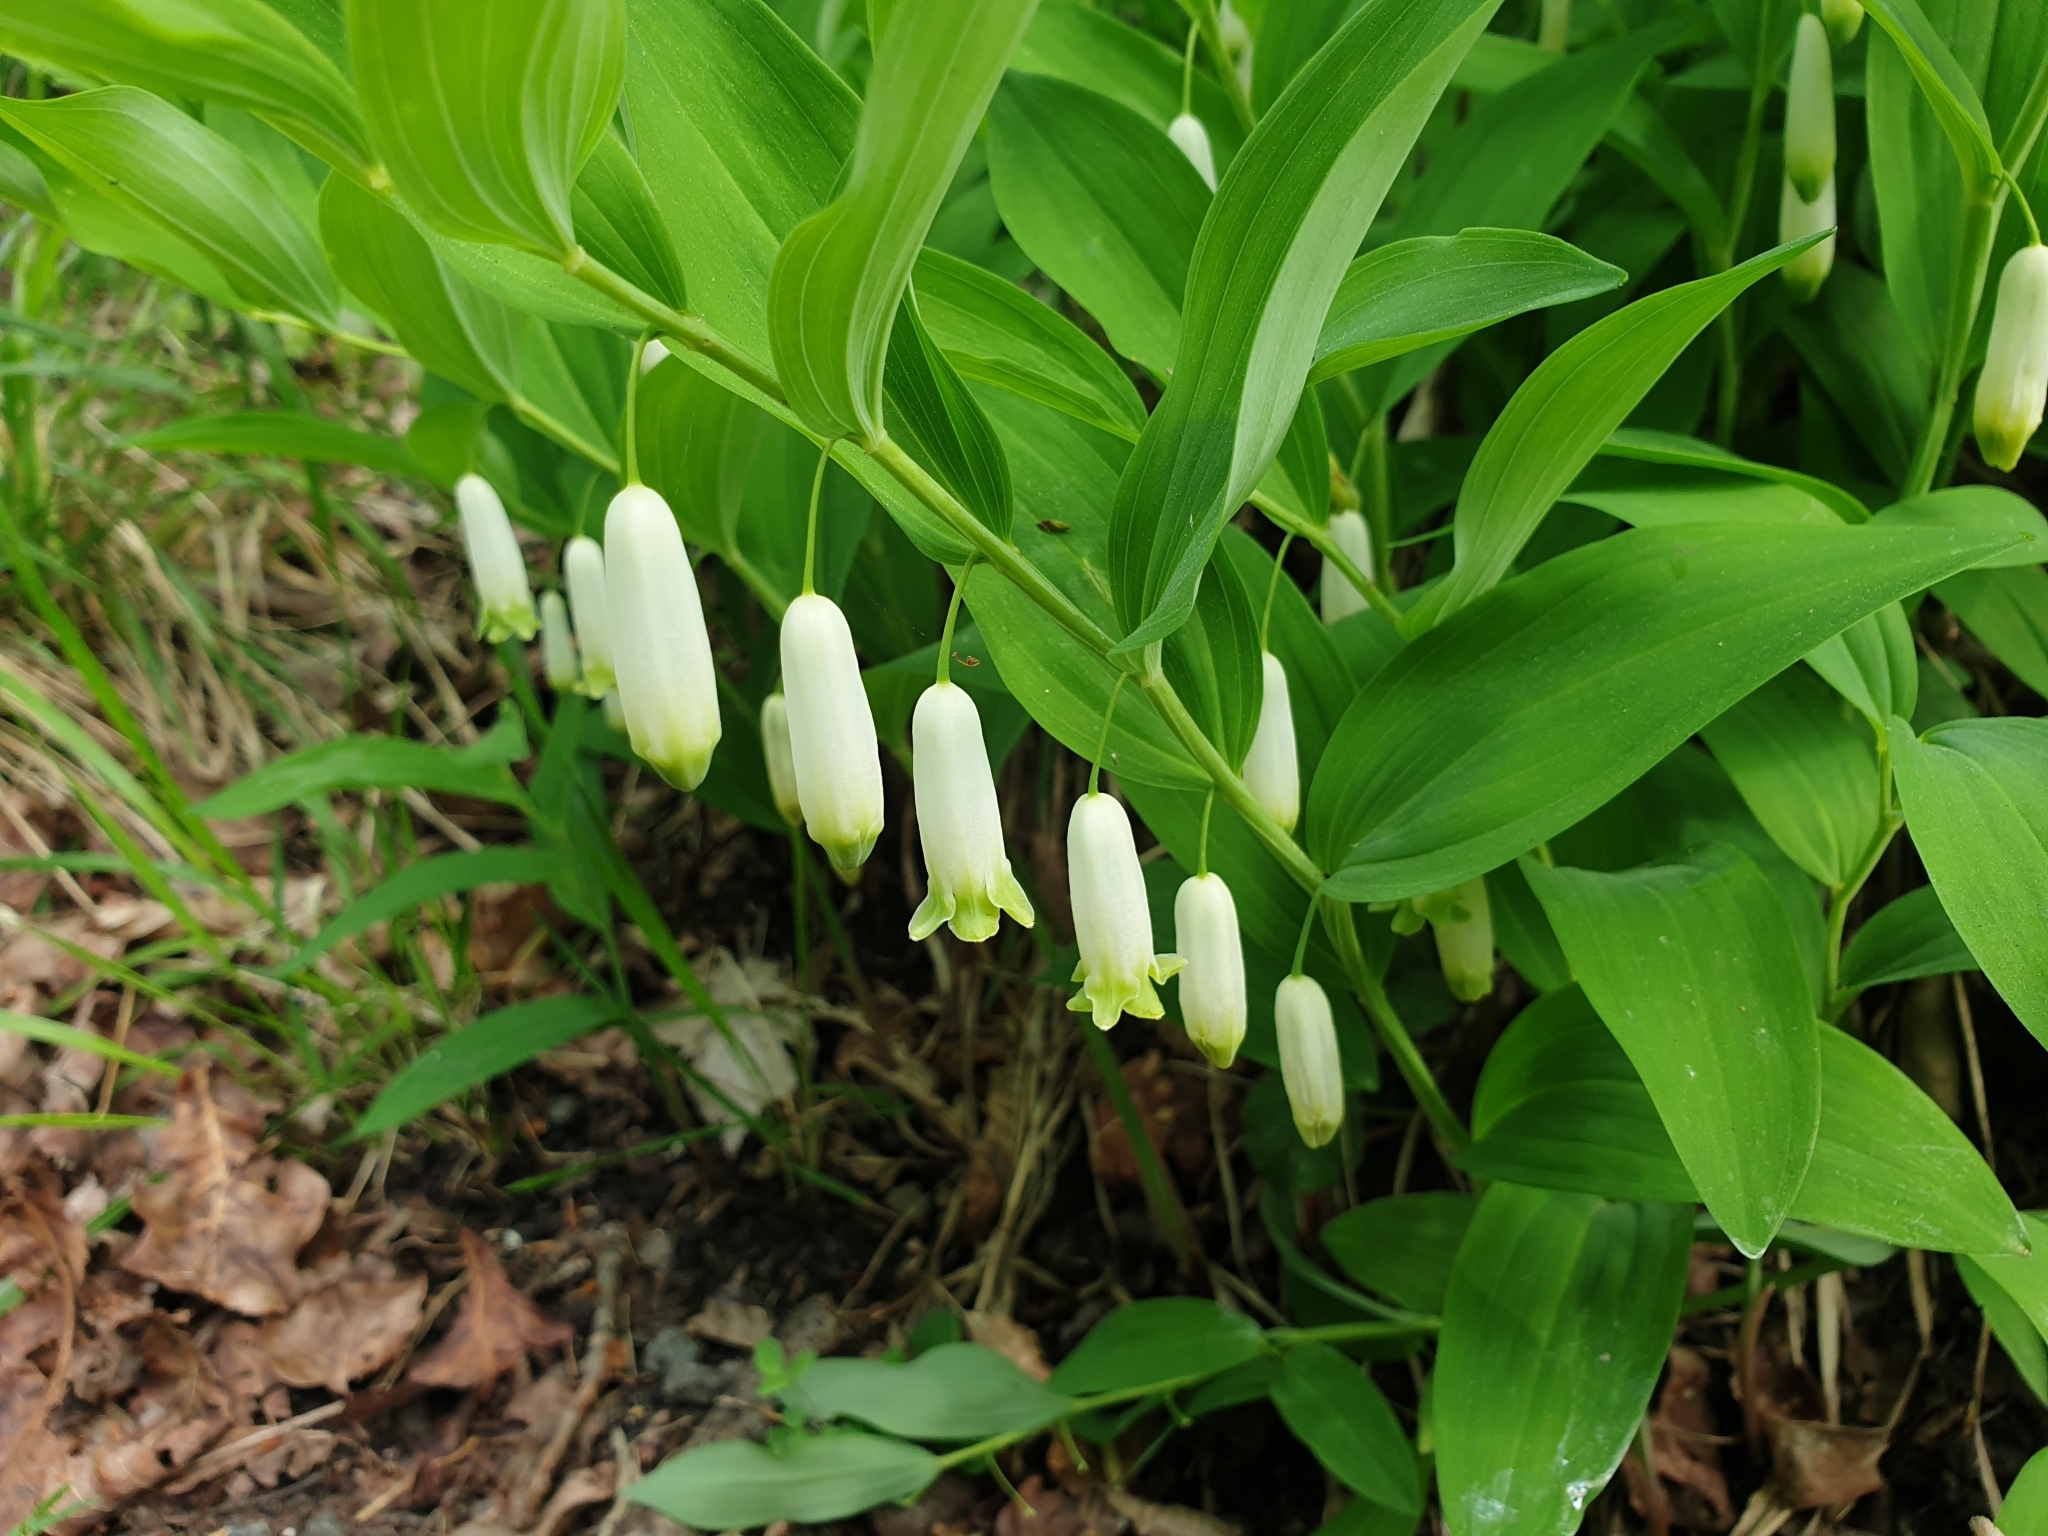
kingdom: Plantae
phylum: Tracheophyta
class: Liliopsida
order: Asparagales
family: Asparagaceae
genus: Polygonatum
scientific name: Polygonatum odoratum
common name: Angular solomon's-seal
